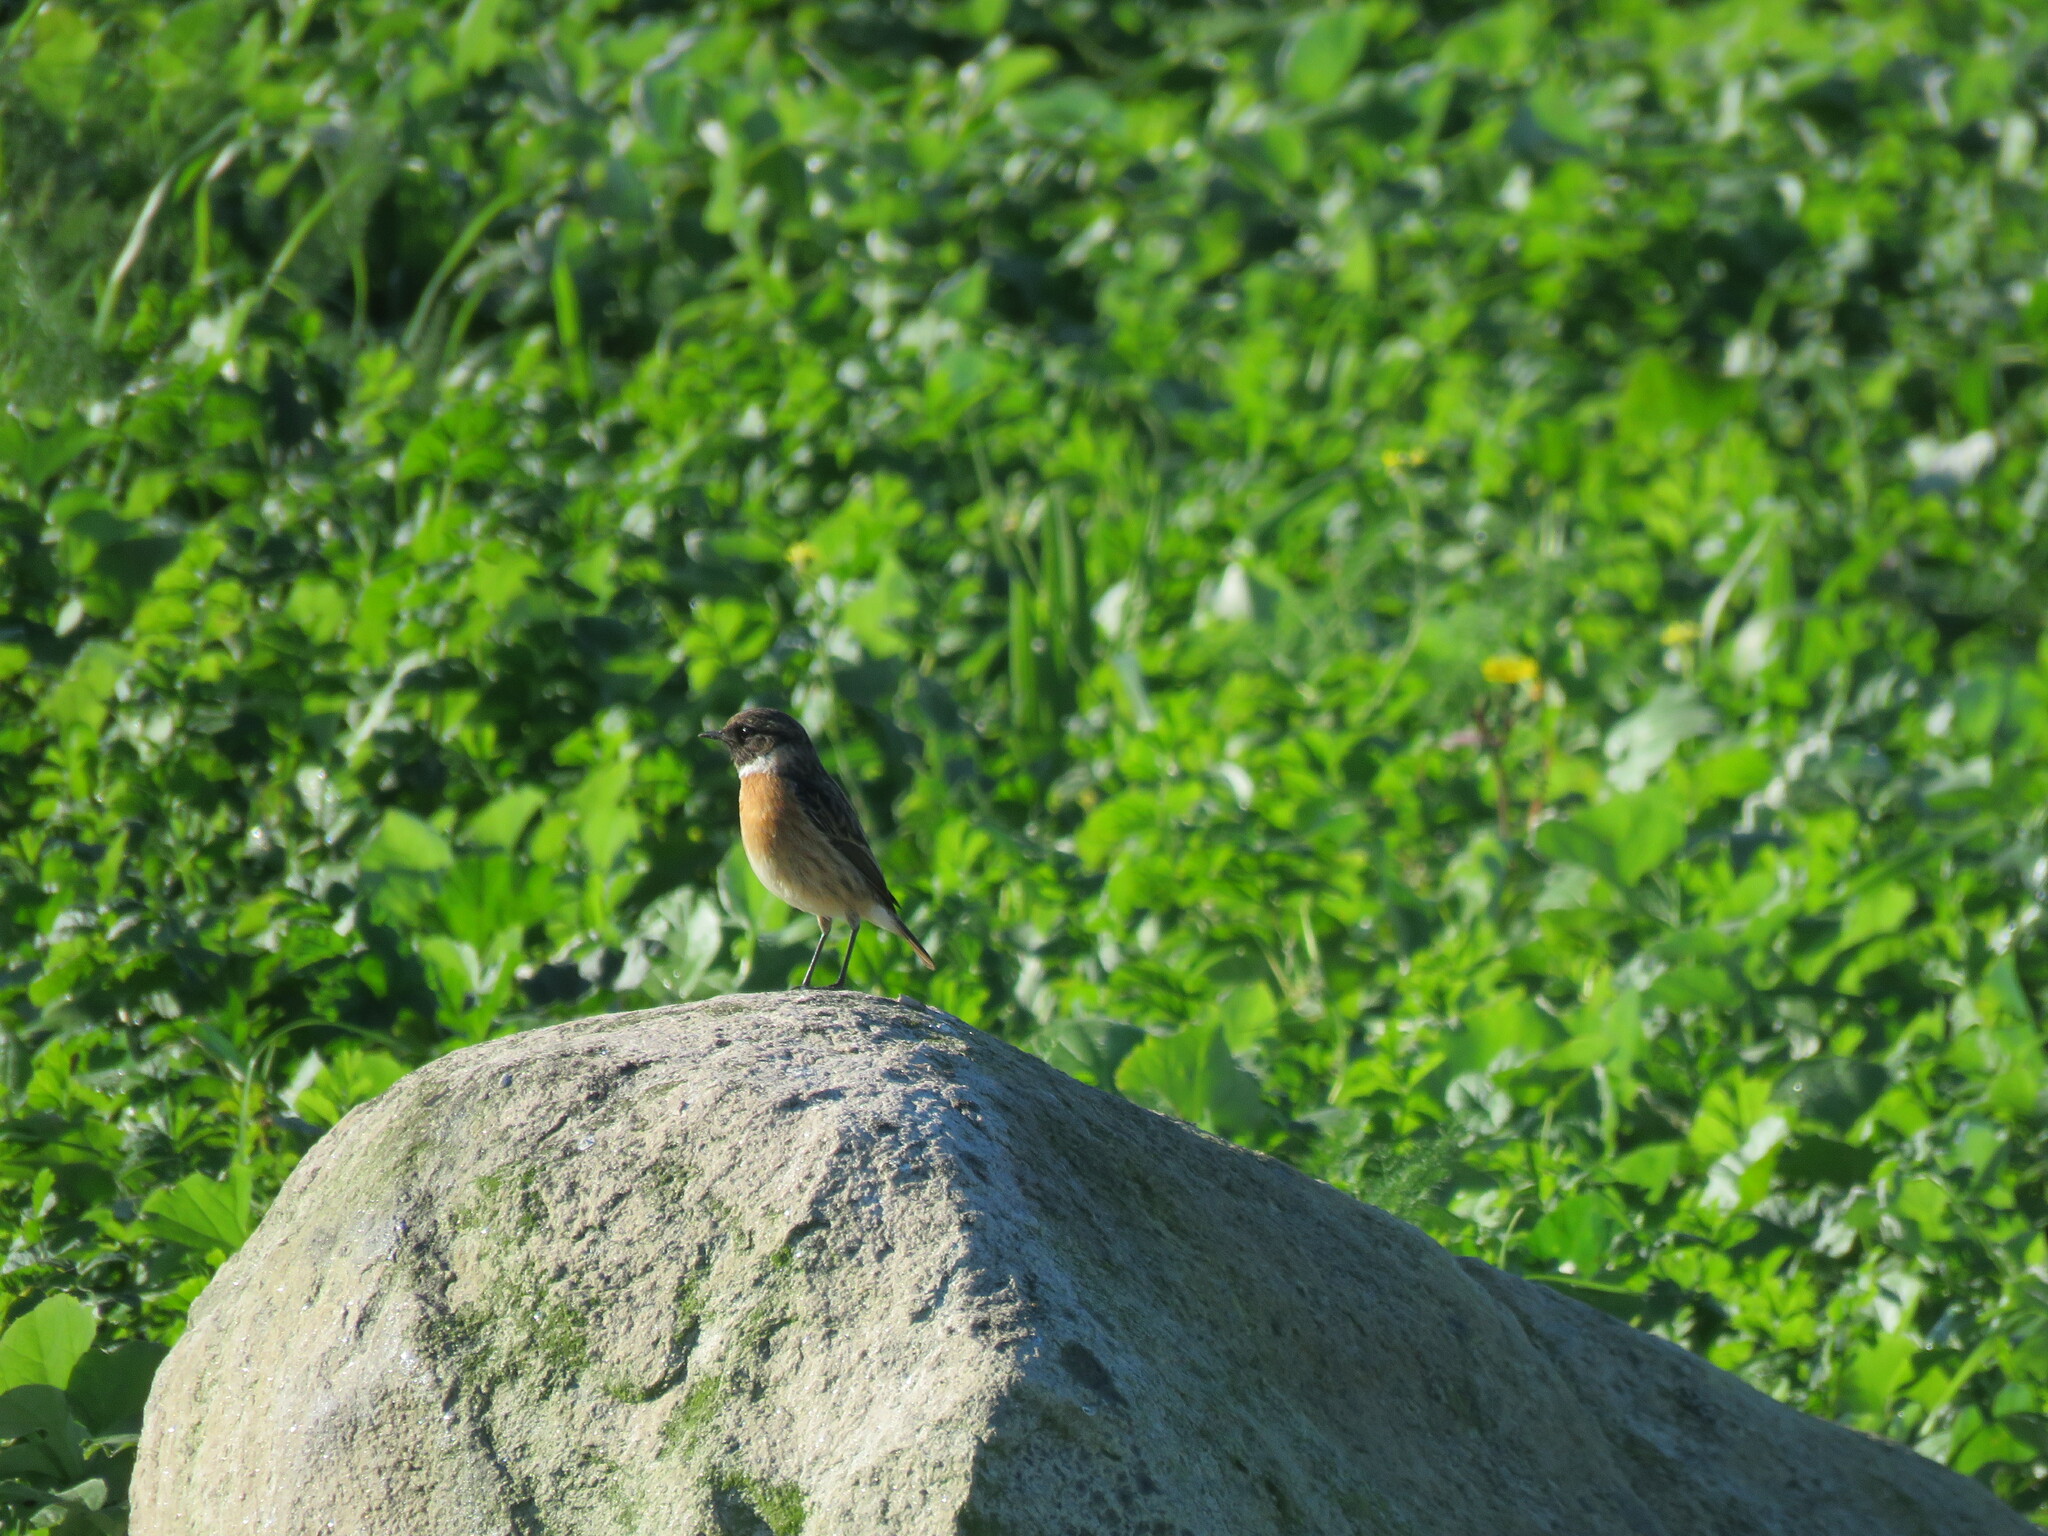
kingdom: Animalia
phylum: Chordata
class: Aves
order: Passeriformes
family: Muscicapidae
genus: Saxicola
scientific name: Saxicola rubicola
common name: European stonechat
